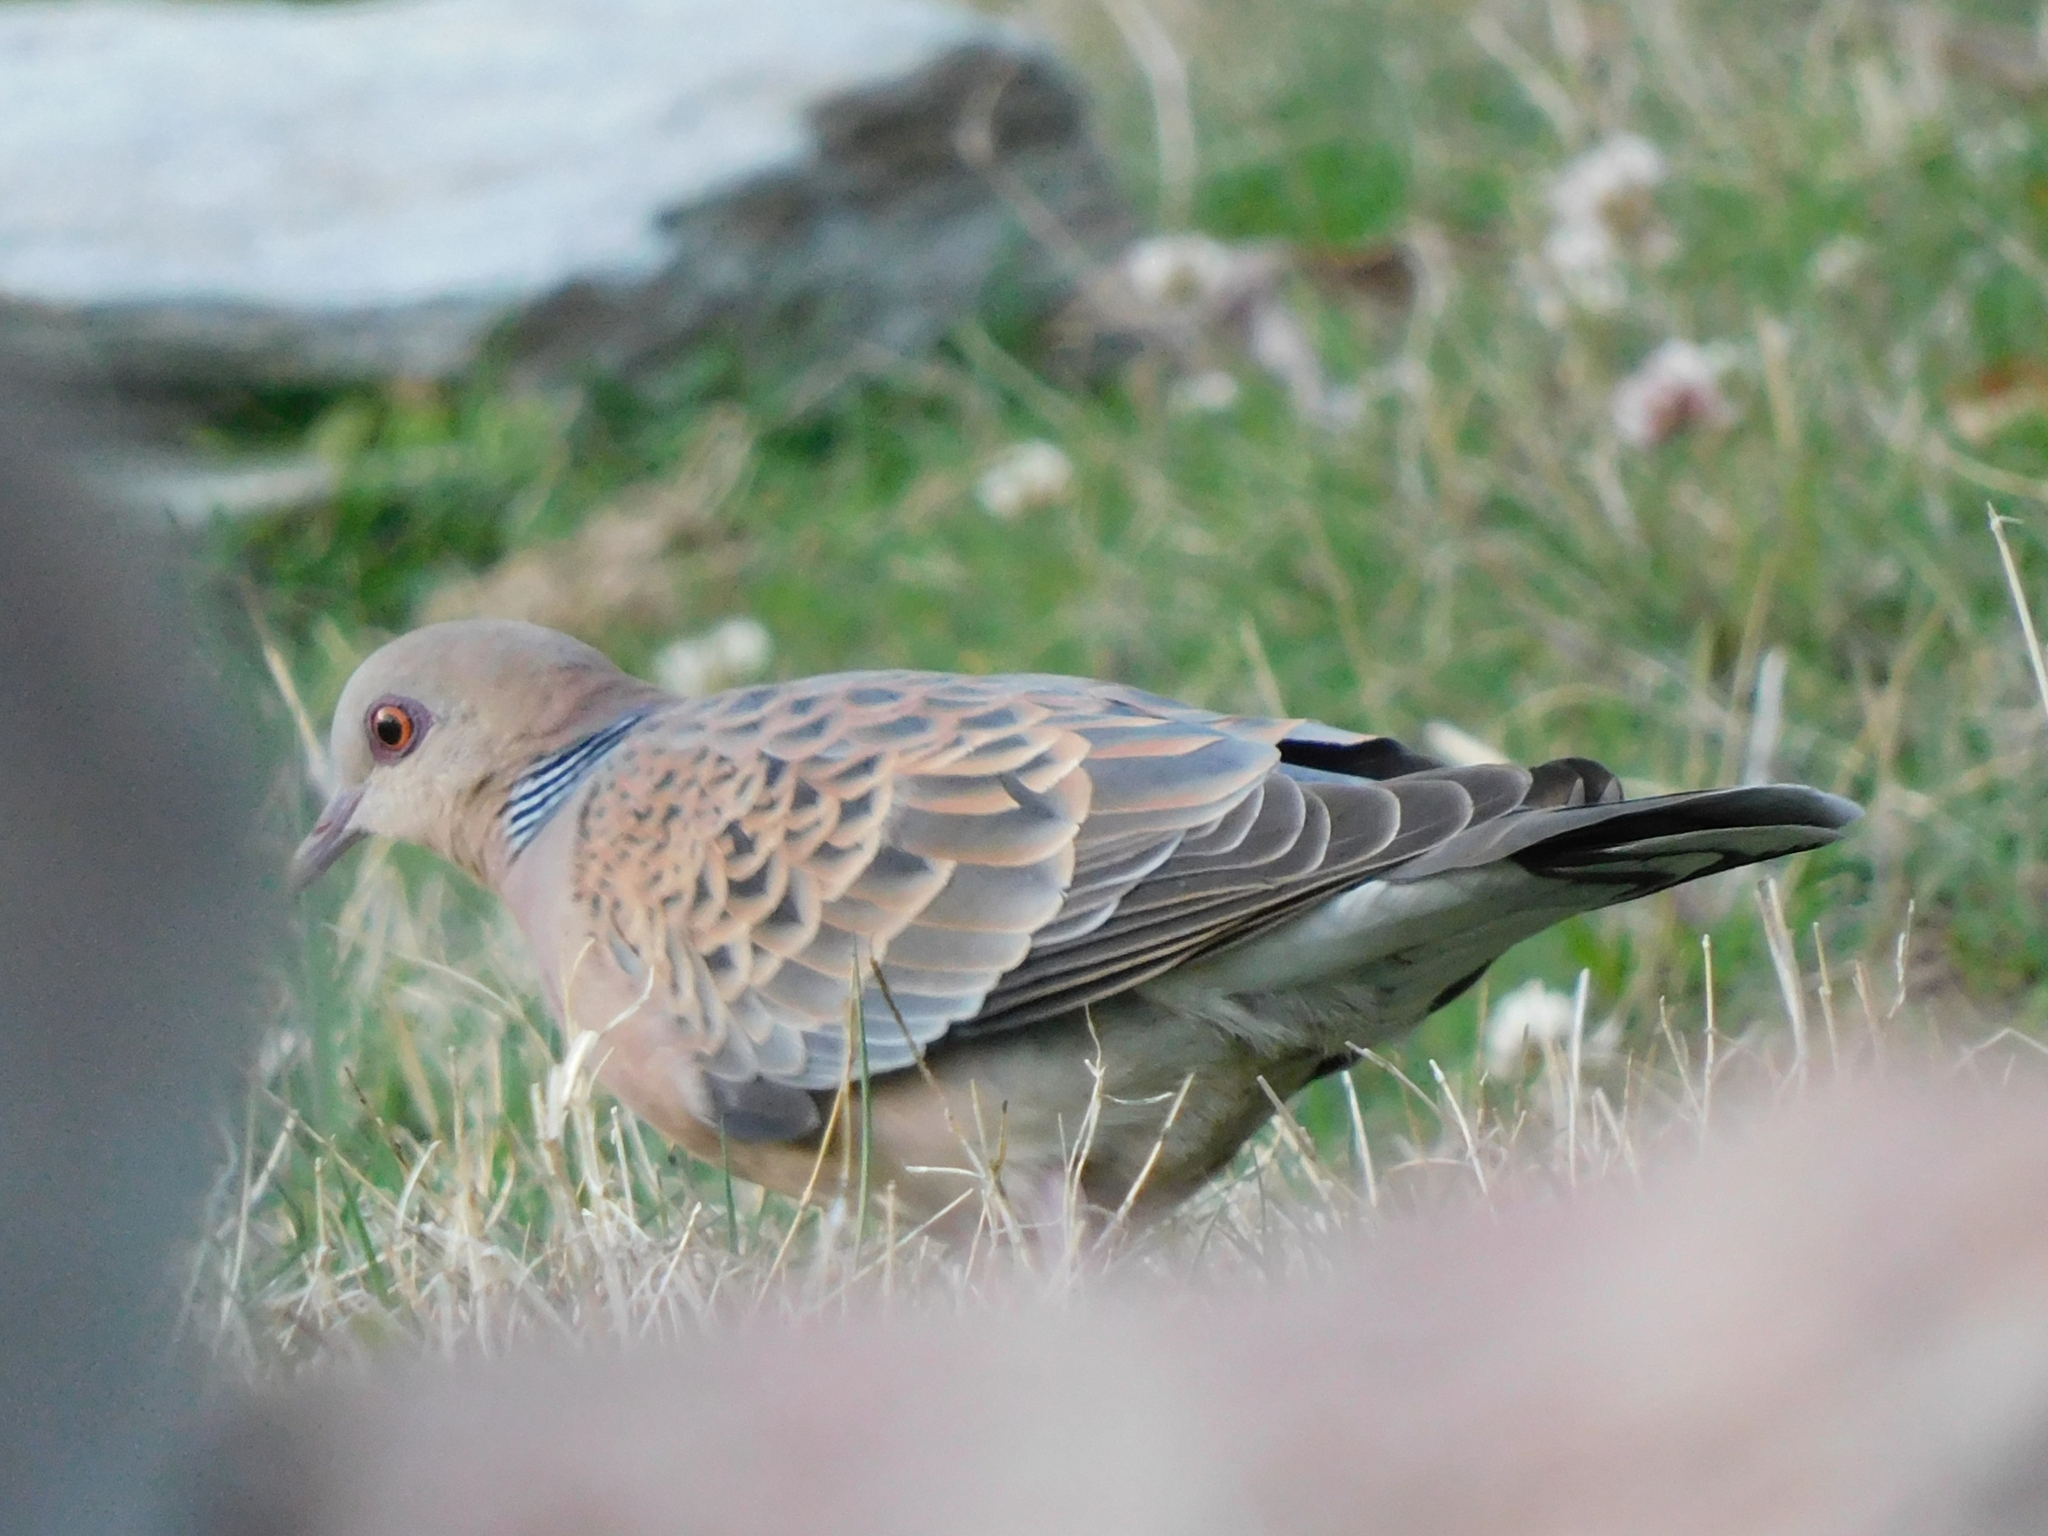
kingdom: Animalia
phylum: Chordata
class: Aves
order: Columbiformes
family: Columbidae
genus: Streptopelia
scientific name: Streptopelia orientalis
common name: Oriental turtle dove
